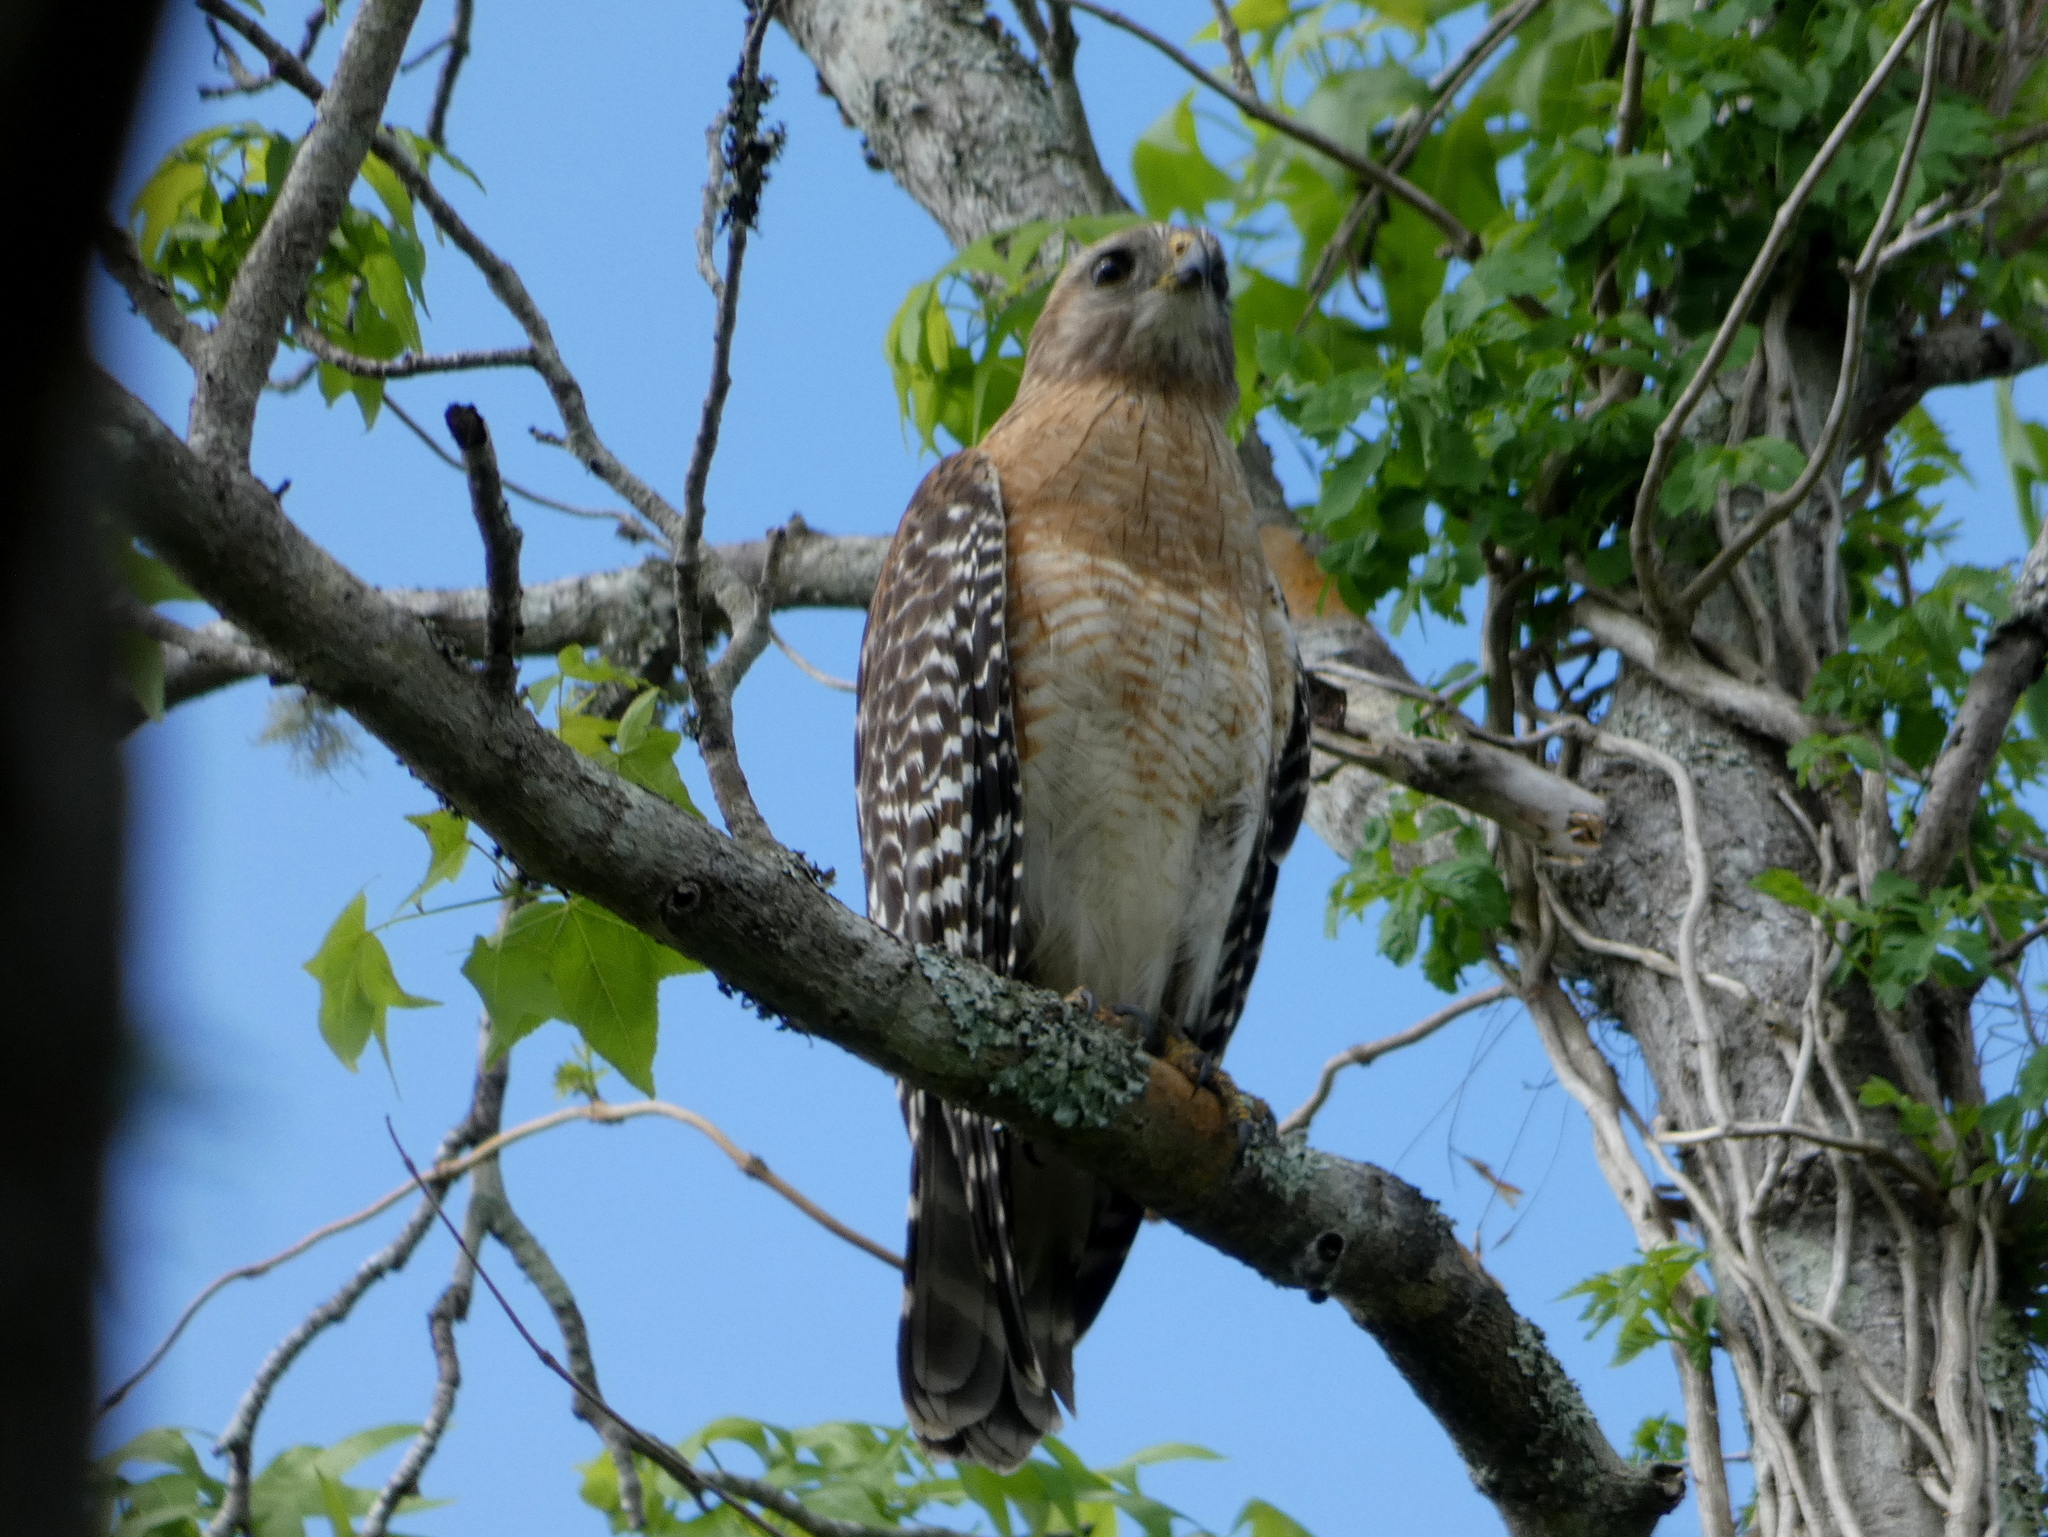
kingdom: Animalia
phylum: Chordata
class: Aves
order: Accipitriformes
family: Accipitridae
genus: Buteo
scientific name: Buteo lineatus
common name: Red-shouldered hawk
